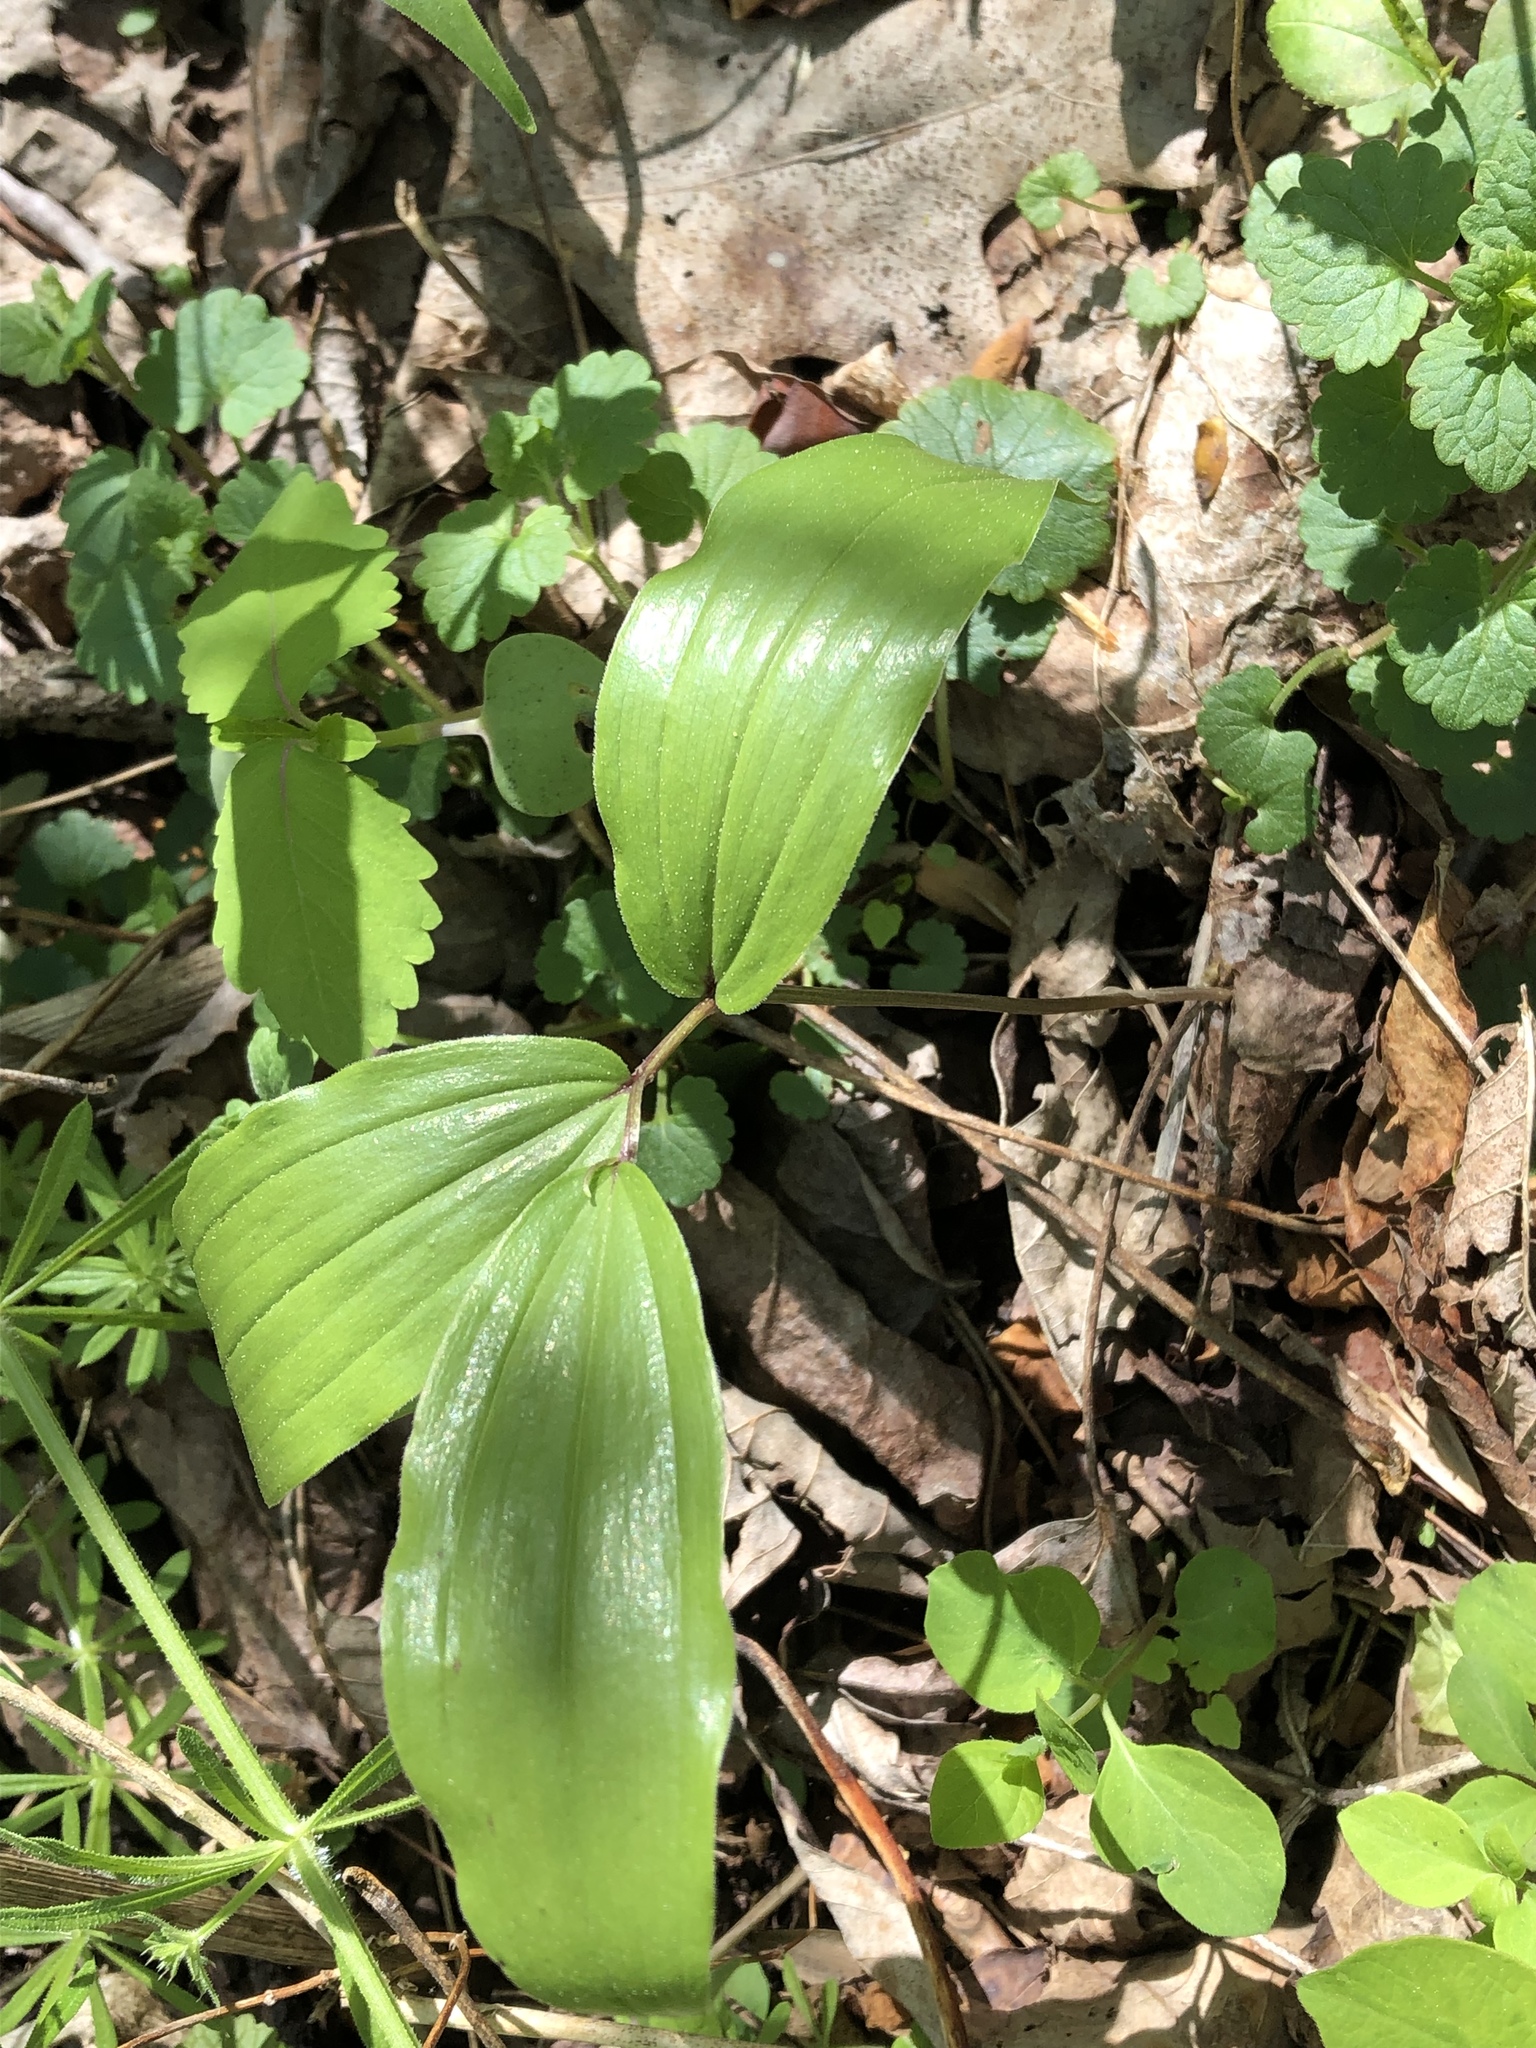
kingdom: Plantae
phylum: Tracheophyta
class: Liliopsida
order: Asparagales
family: Asparagaceae
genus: Maianthemum
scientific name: Maianthemum racemosum
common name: False spikenard
